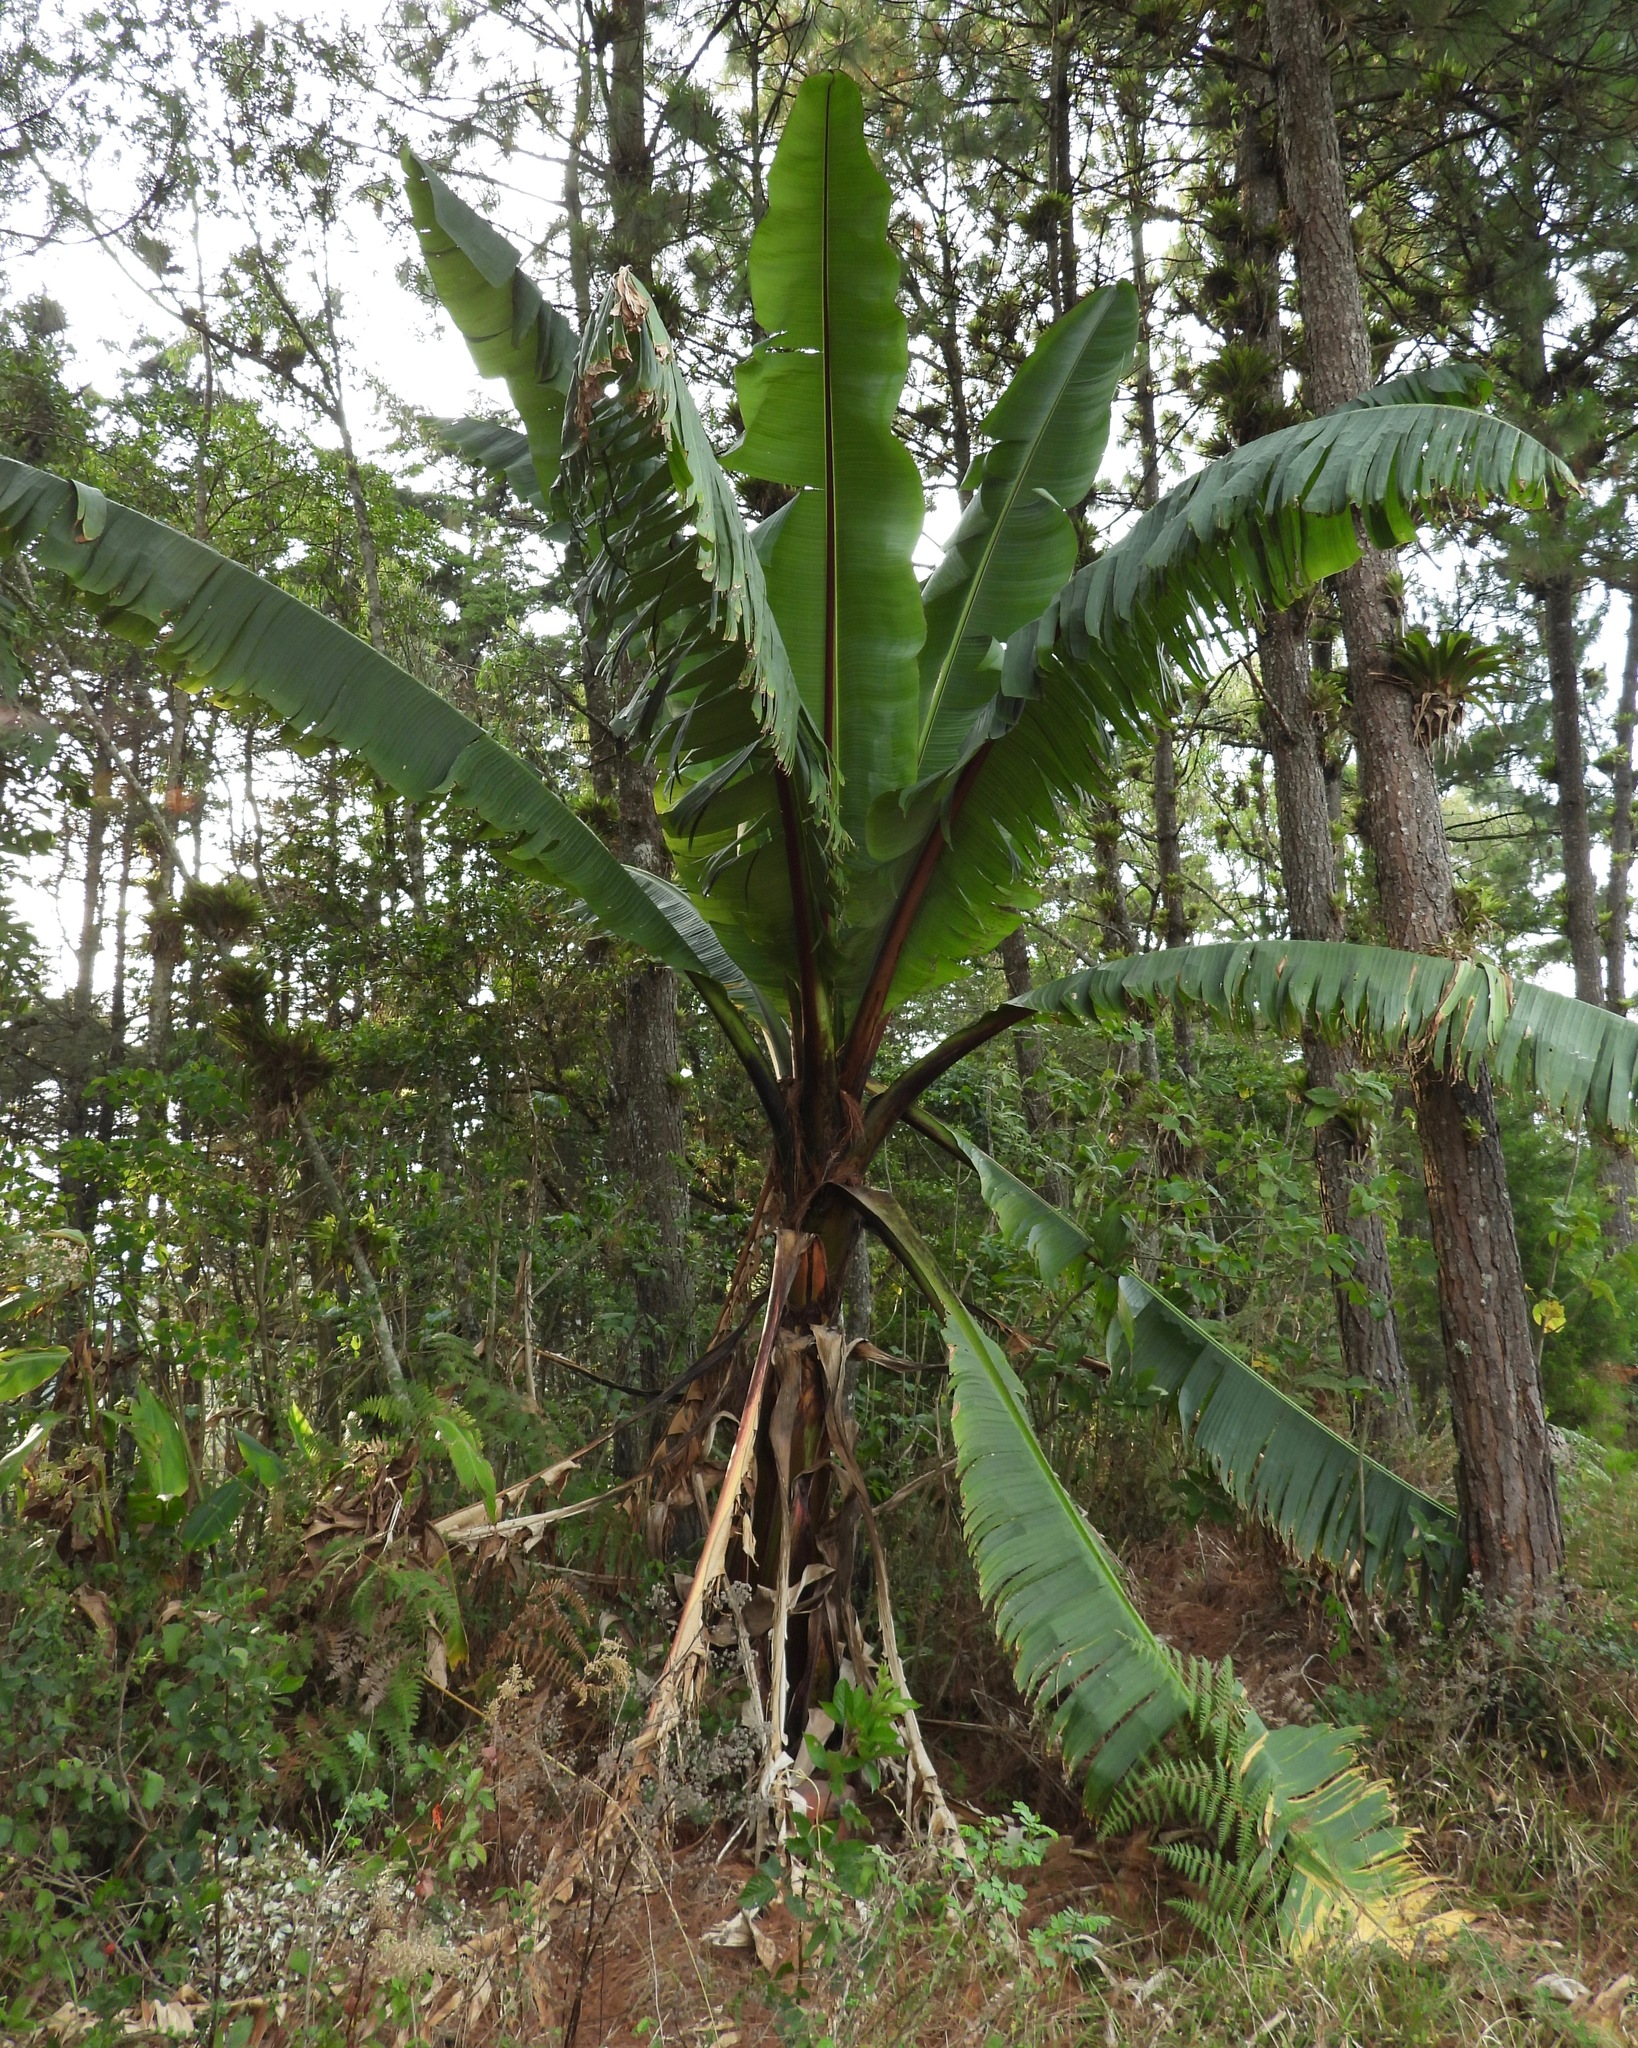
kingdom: Plantae
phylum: Tracheophyta
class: Liliopsida
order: Zingiberales
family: Musaceae
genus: Ensete
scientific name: Ensete ventricosum
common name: Abyssinian banana
